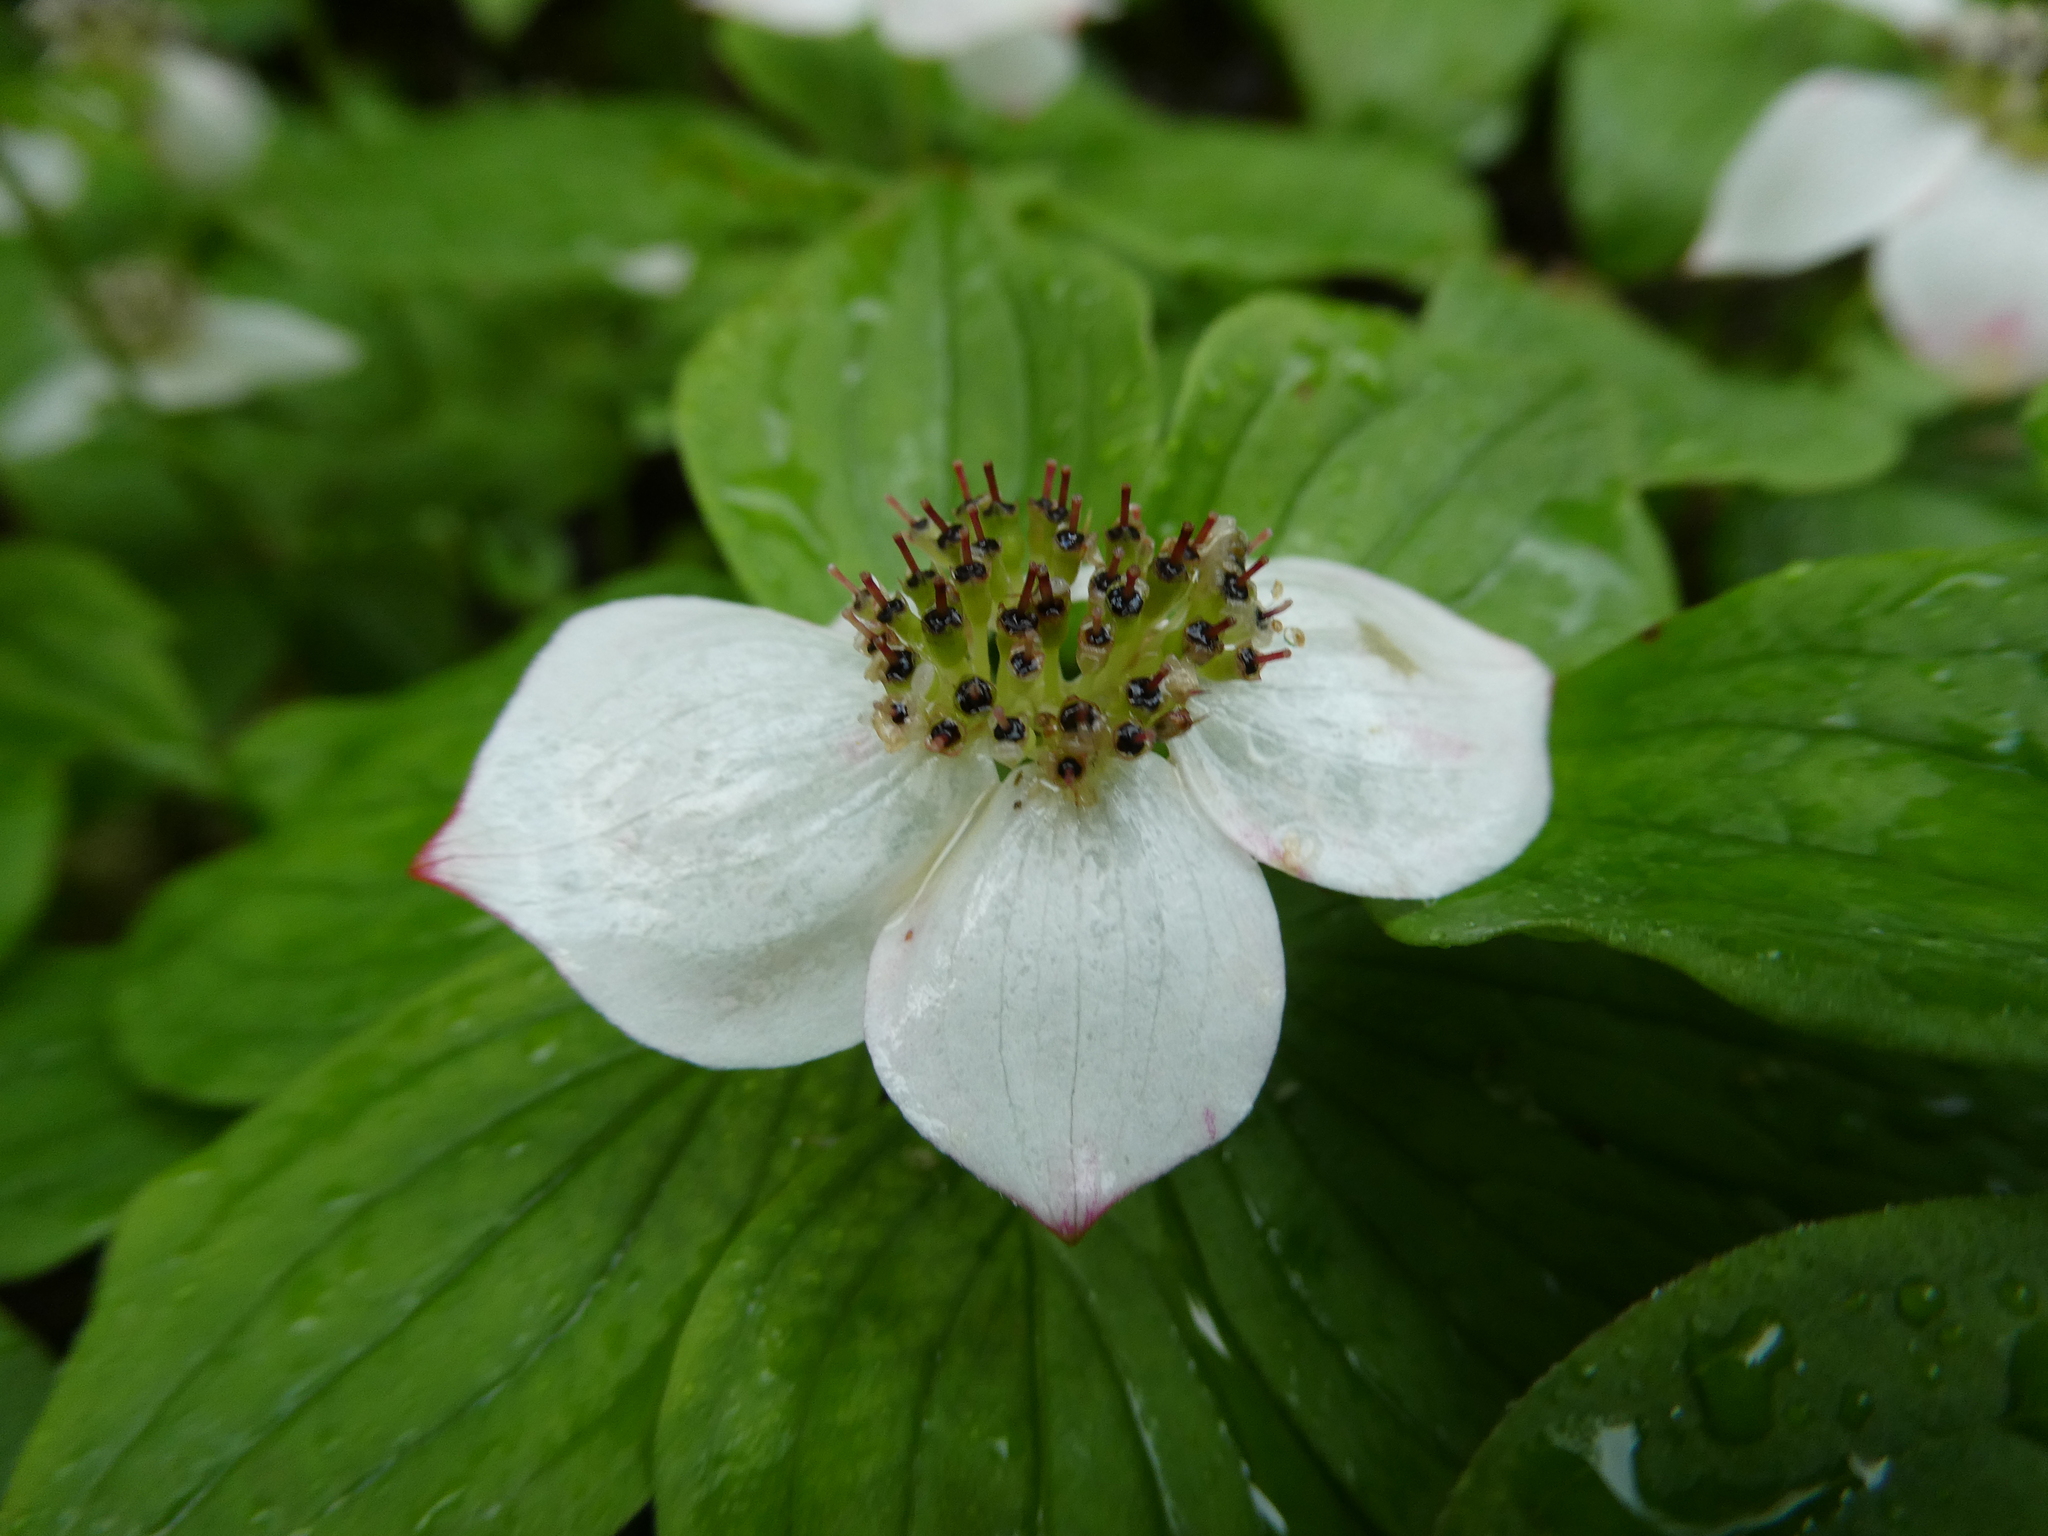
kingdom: Plantae
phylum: Tracheophyta
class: Magnoliopsida
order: Cornales
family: Cornaceae
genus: Cornus
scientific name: Cornus canadensis
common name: Creeping dogwood
